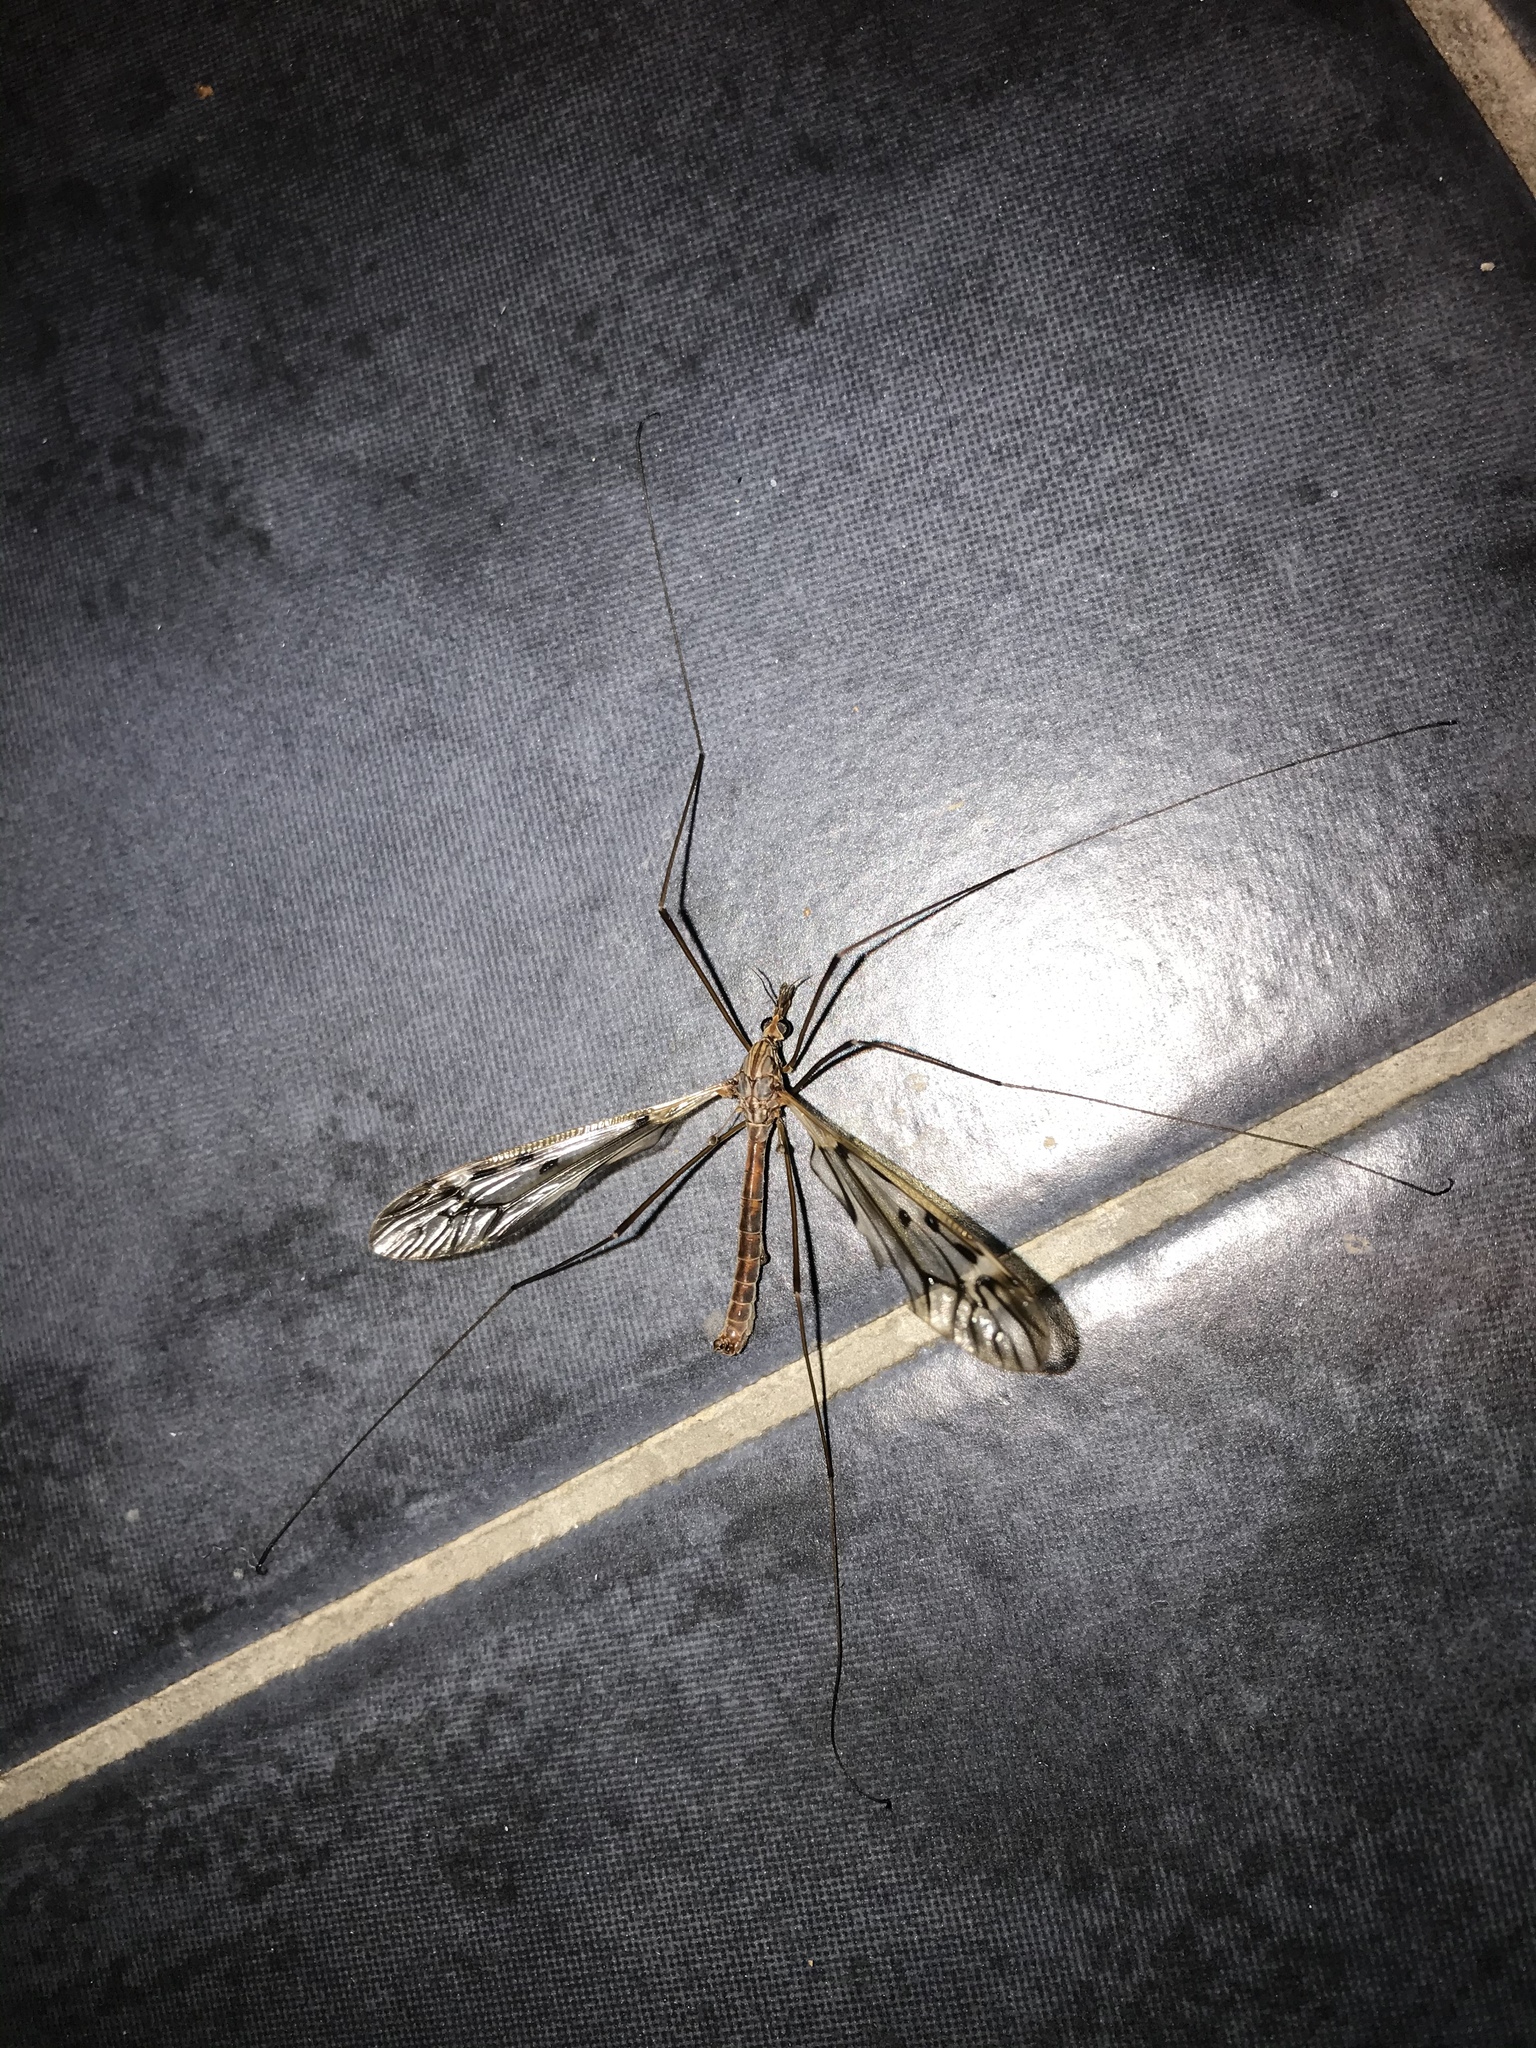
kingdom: Animalia
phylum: Arthropoda
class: Insecta
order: Diptera
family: Tipulidae
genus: Zelandotipula
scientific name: Zelandotipula novarae
